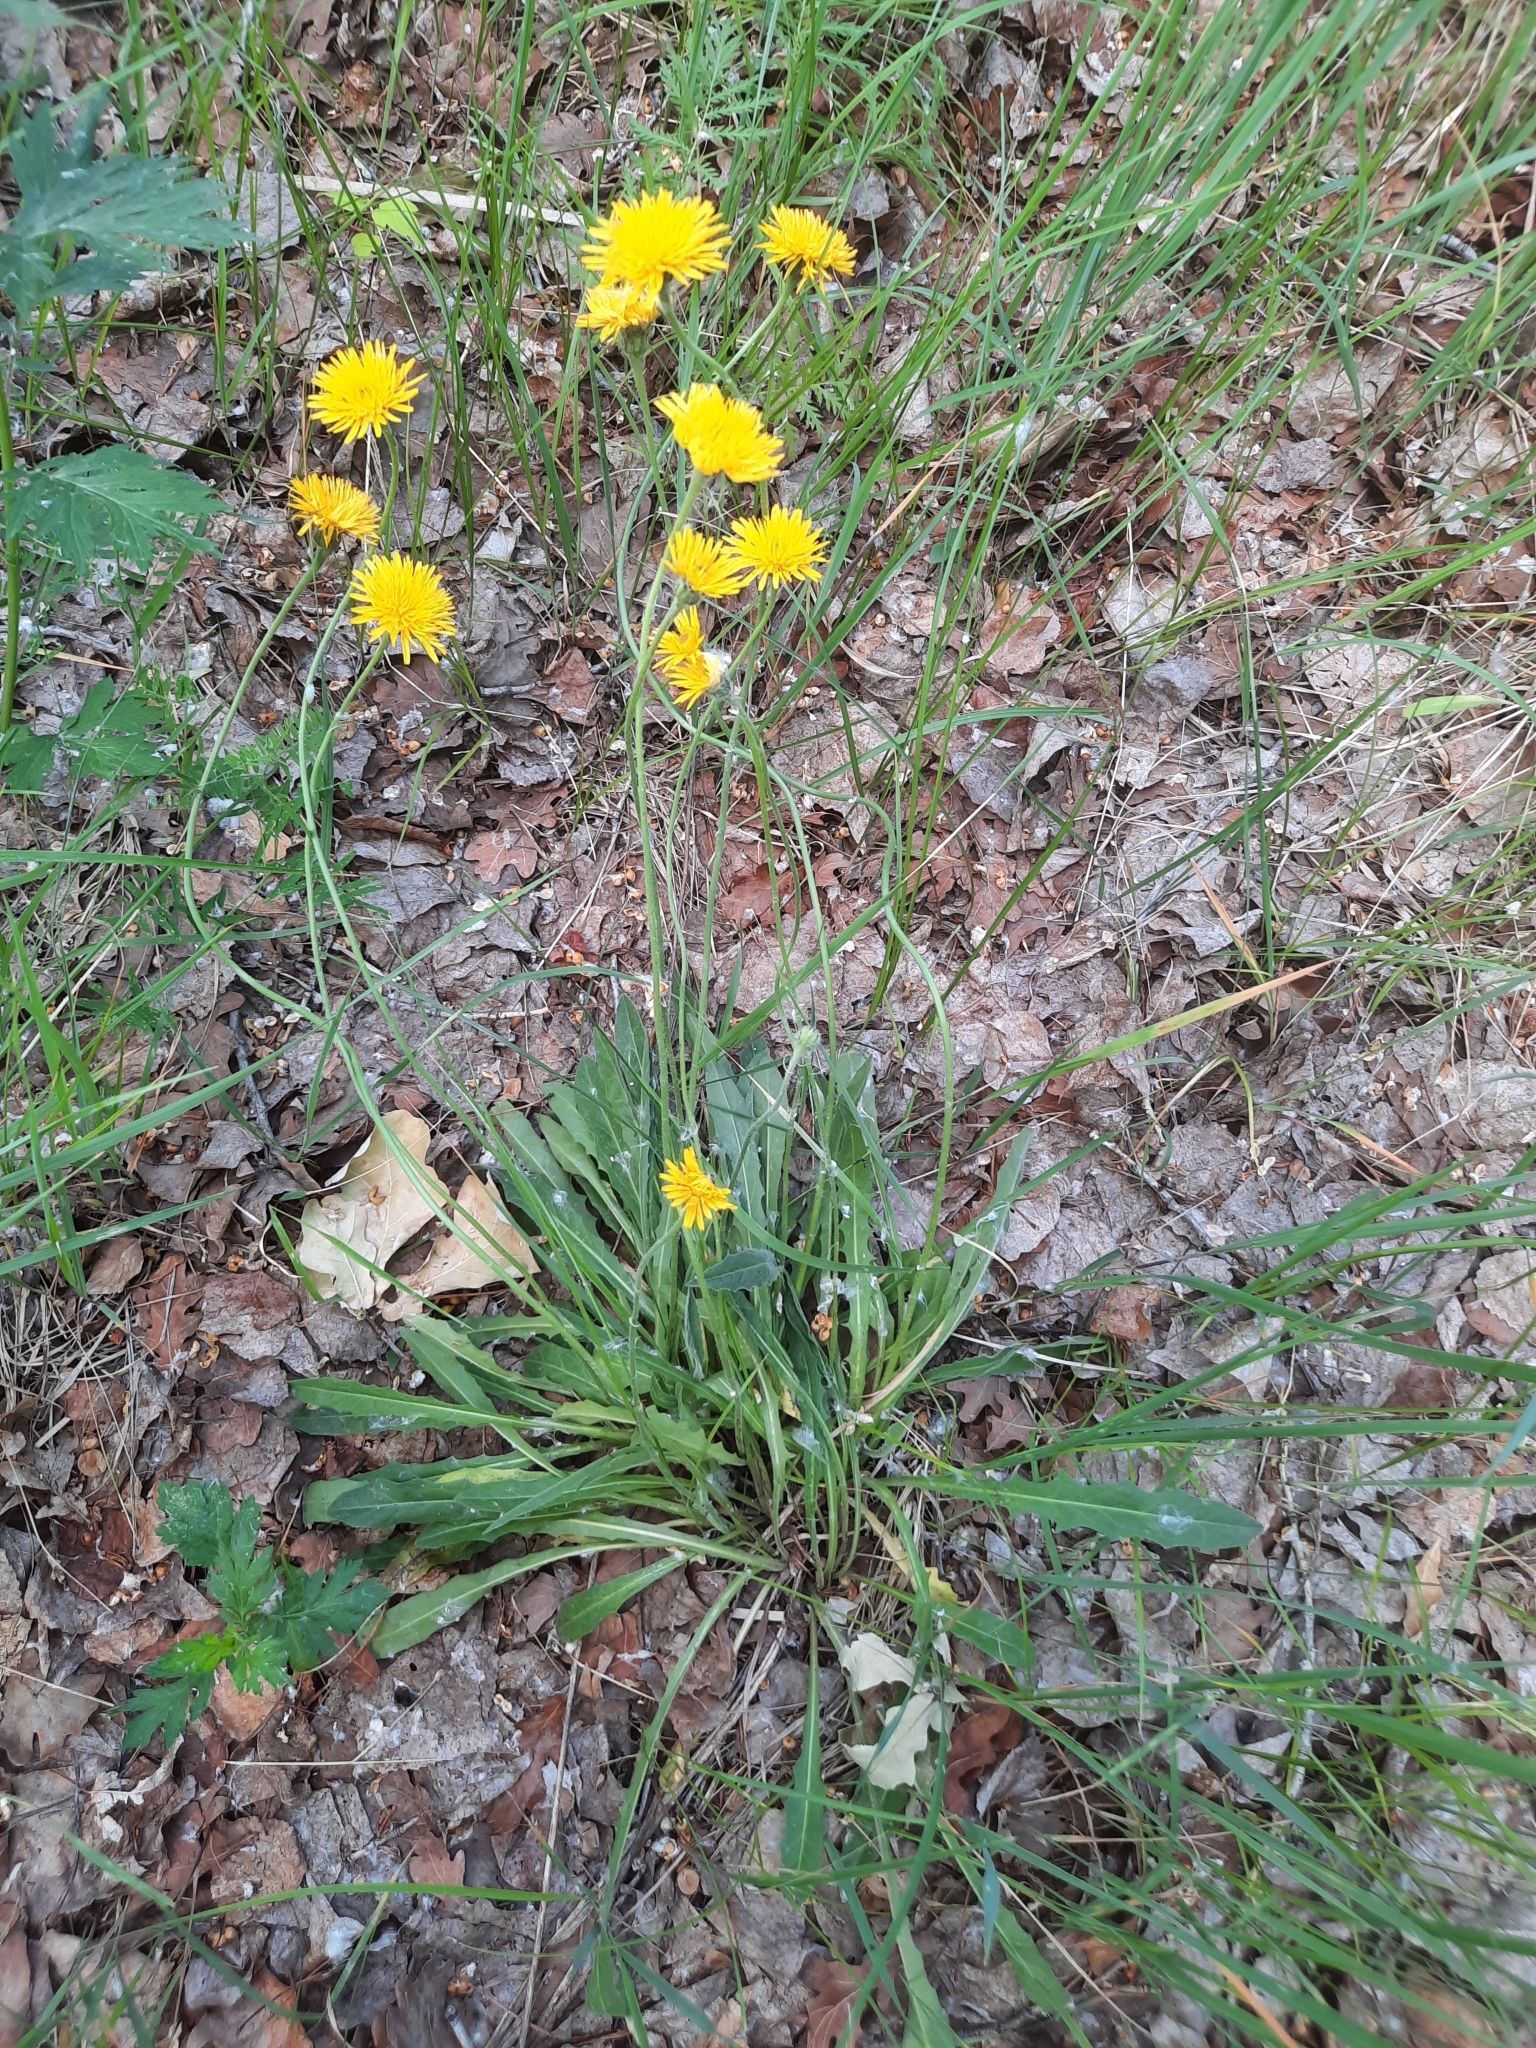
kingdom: Plantae
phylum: Tracheophyta
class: Magnoliopsida
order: Asterales
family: Asteraceae
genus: Leontodon
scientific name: Leontodon hispidus
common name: Rough hawkbit
